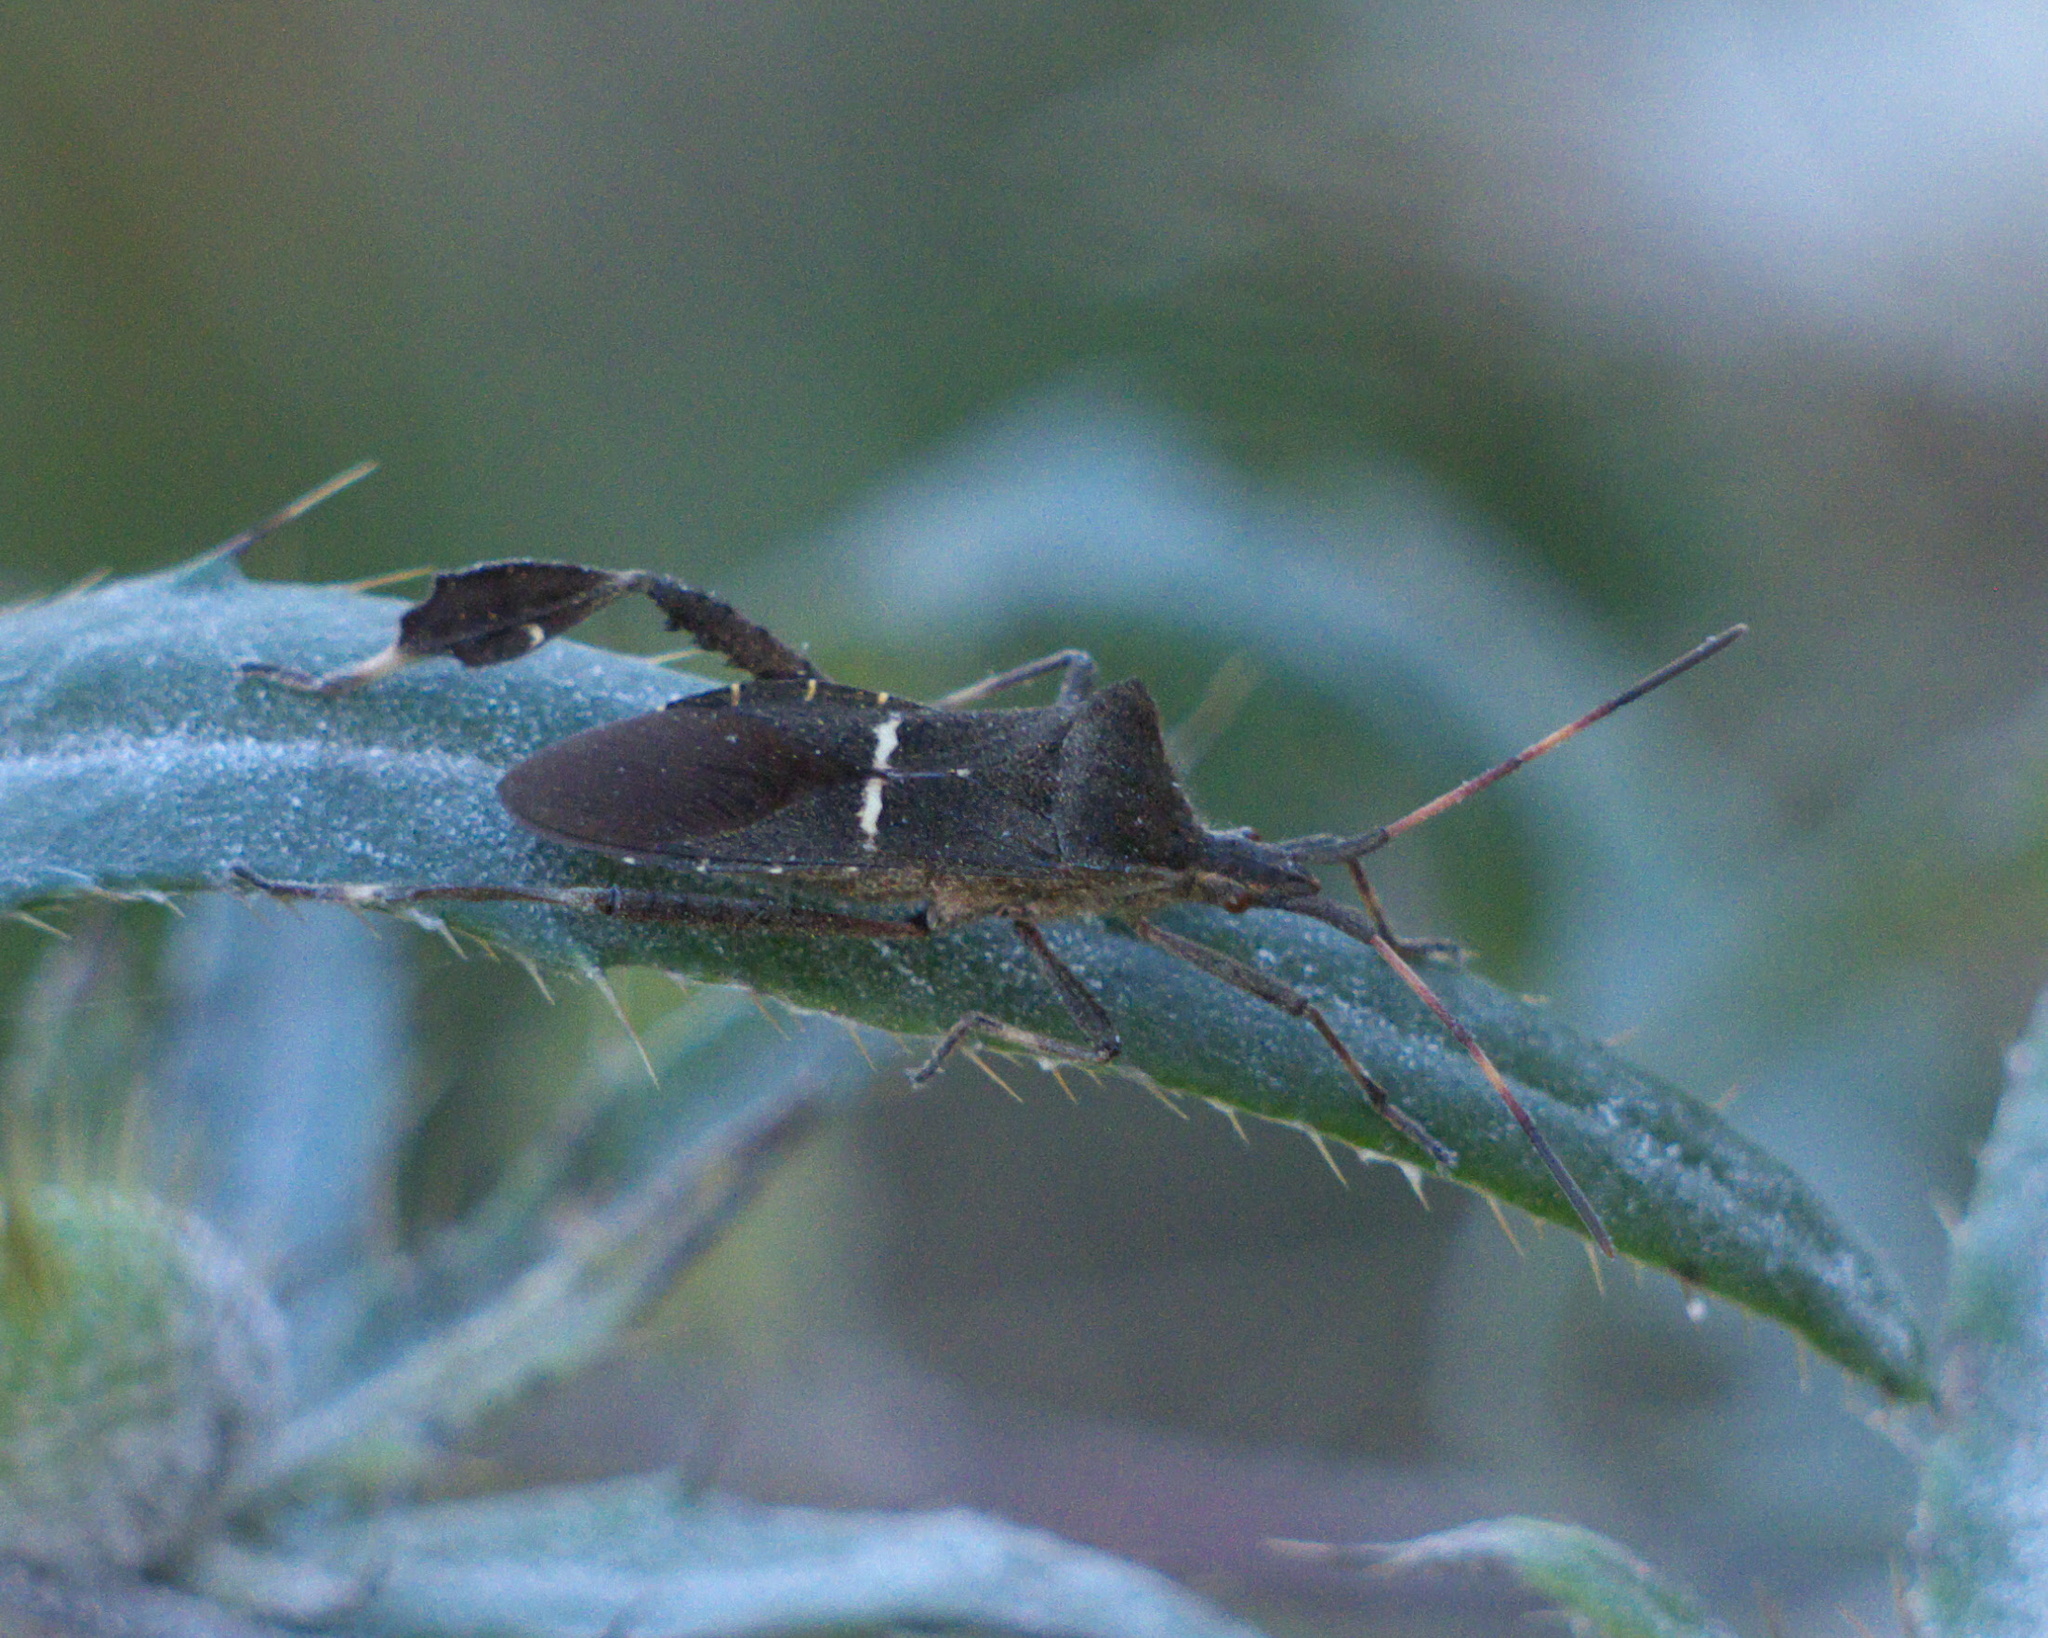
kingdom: Animalia
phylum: Arthropoda
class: Insecta
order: Hemiptera
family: Coreidae
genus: Leptoglossus
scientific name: Leptoglossus phyllopus
